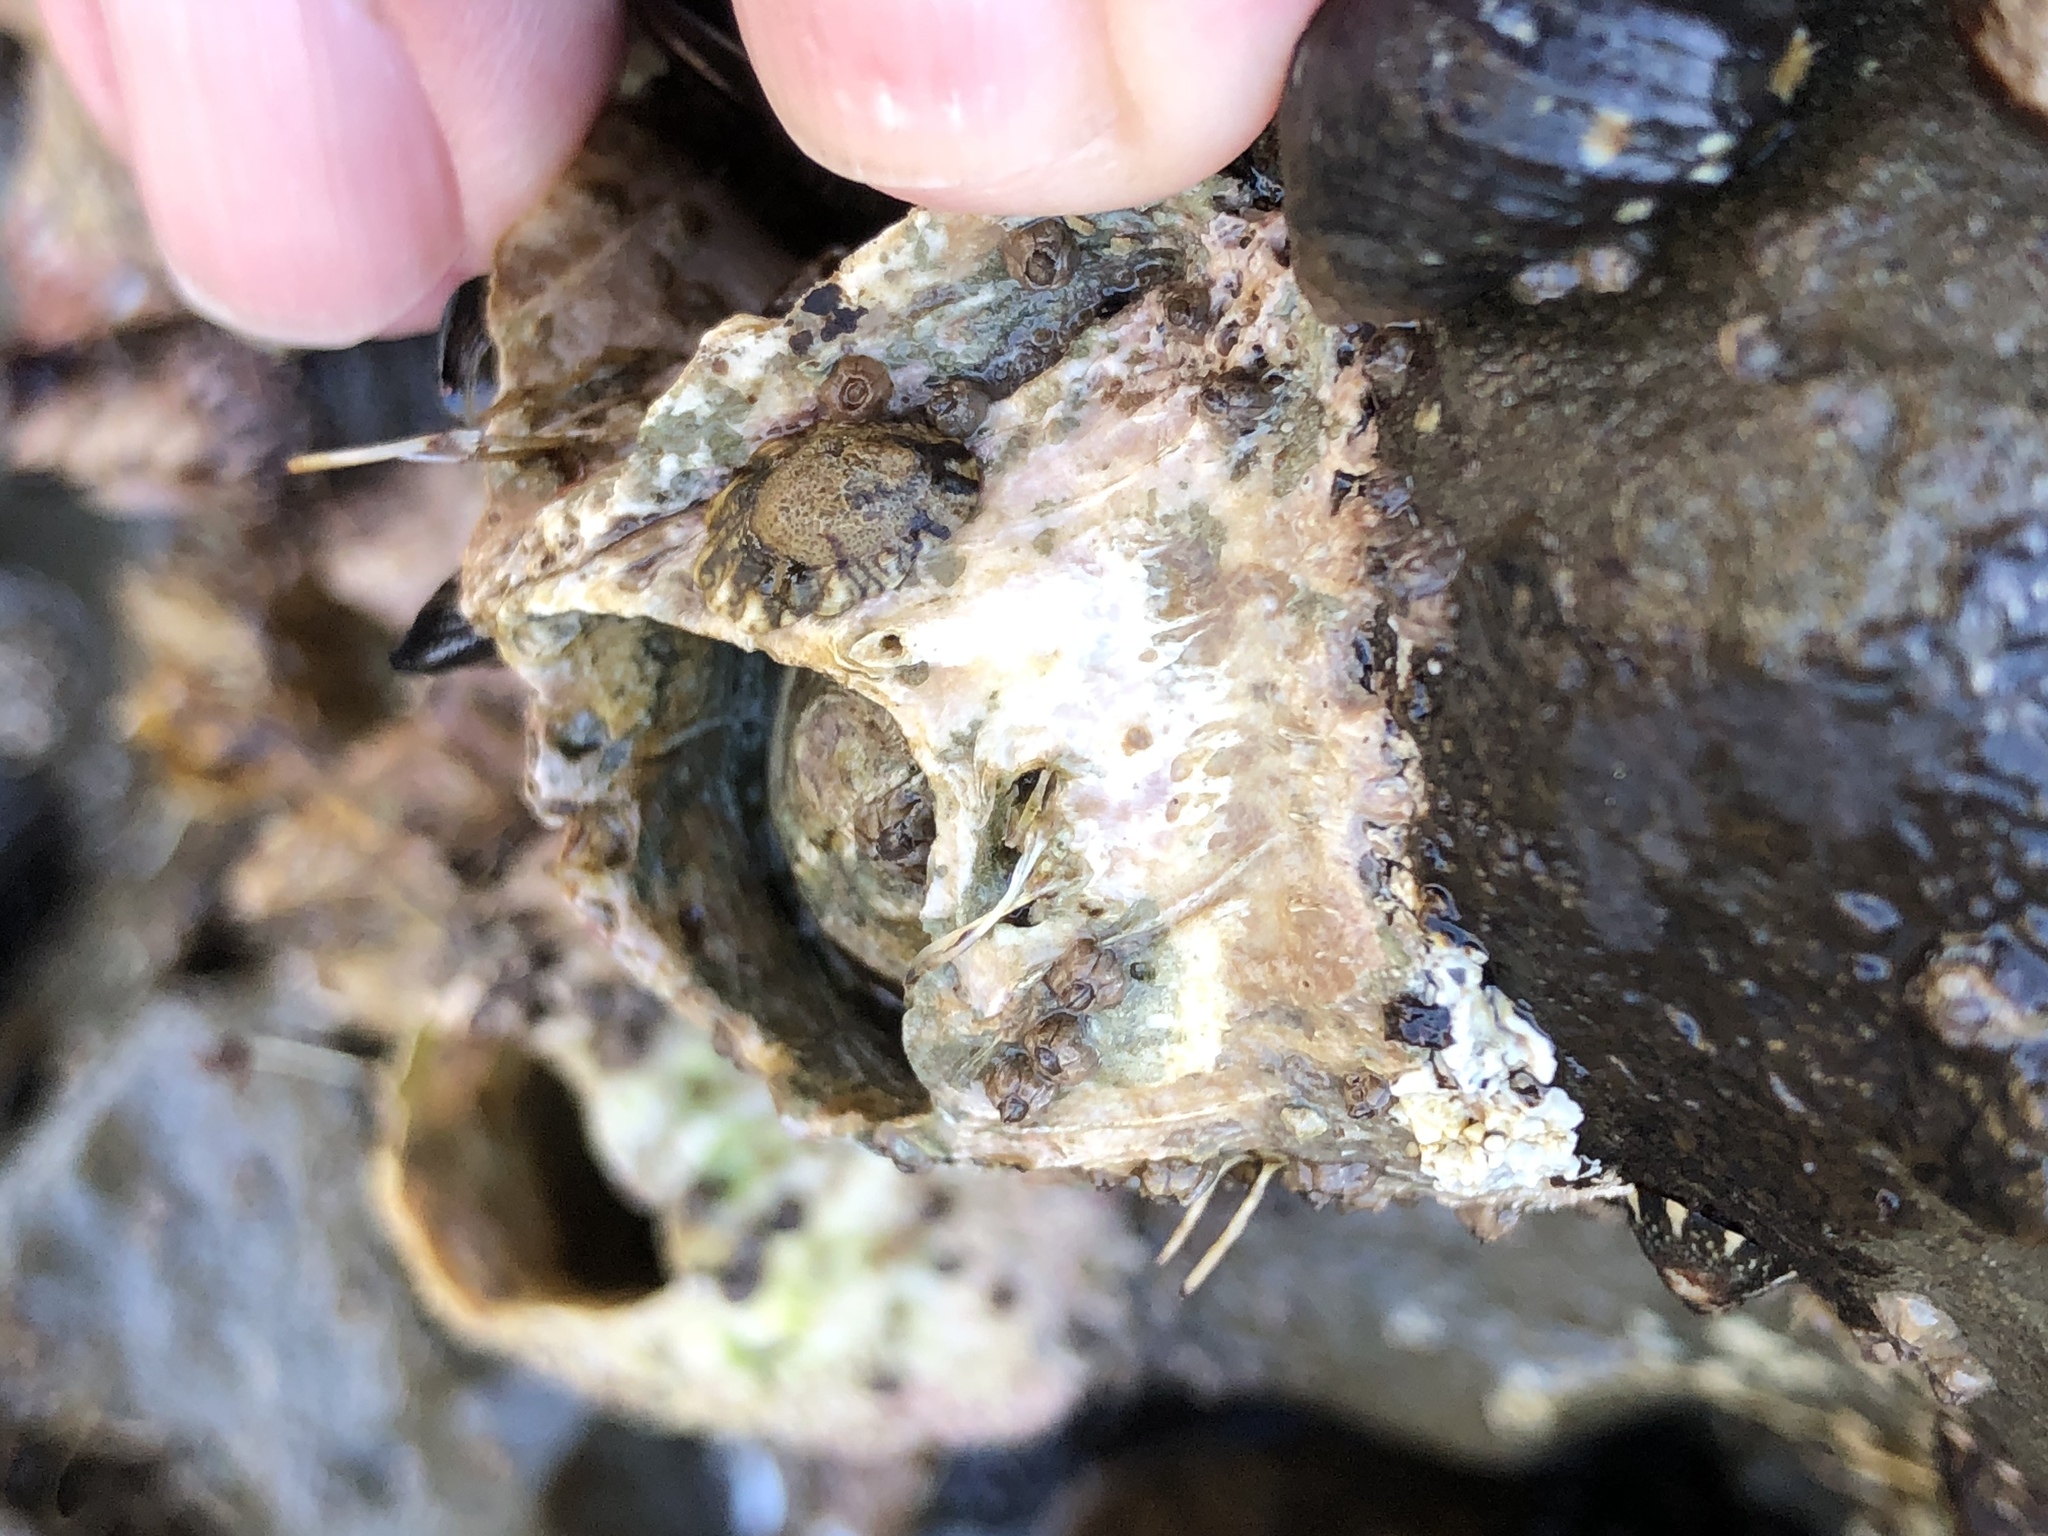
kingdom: Animalia
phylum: Arthropoda
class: Maxillopoda
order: Sessilia
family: Balanidae
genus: Balanus
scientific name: Balanus nubilus
